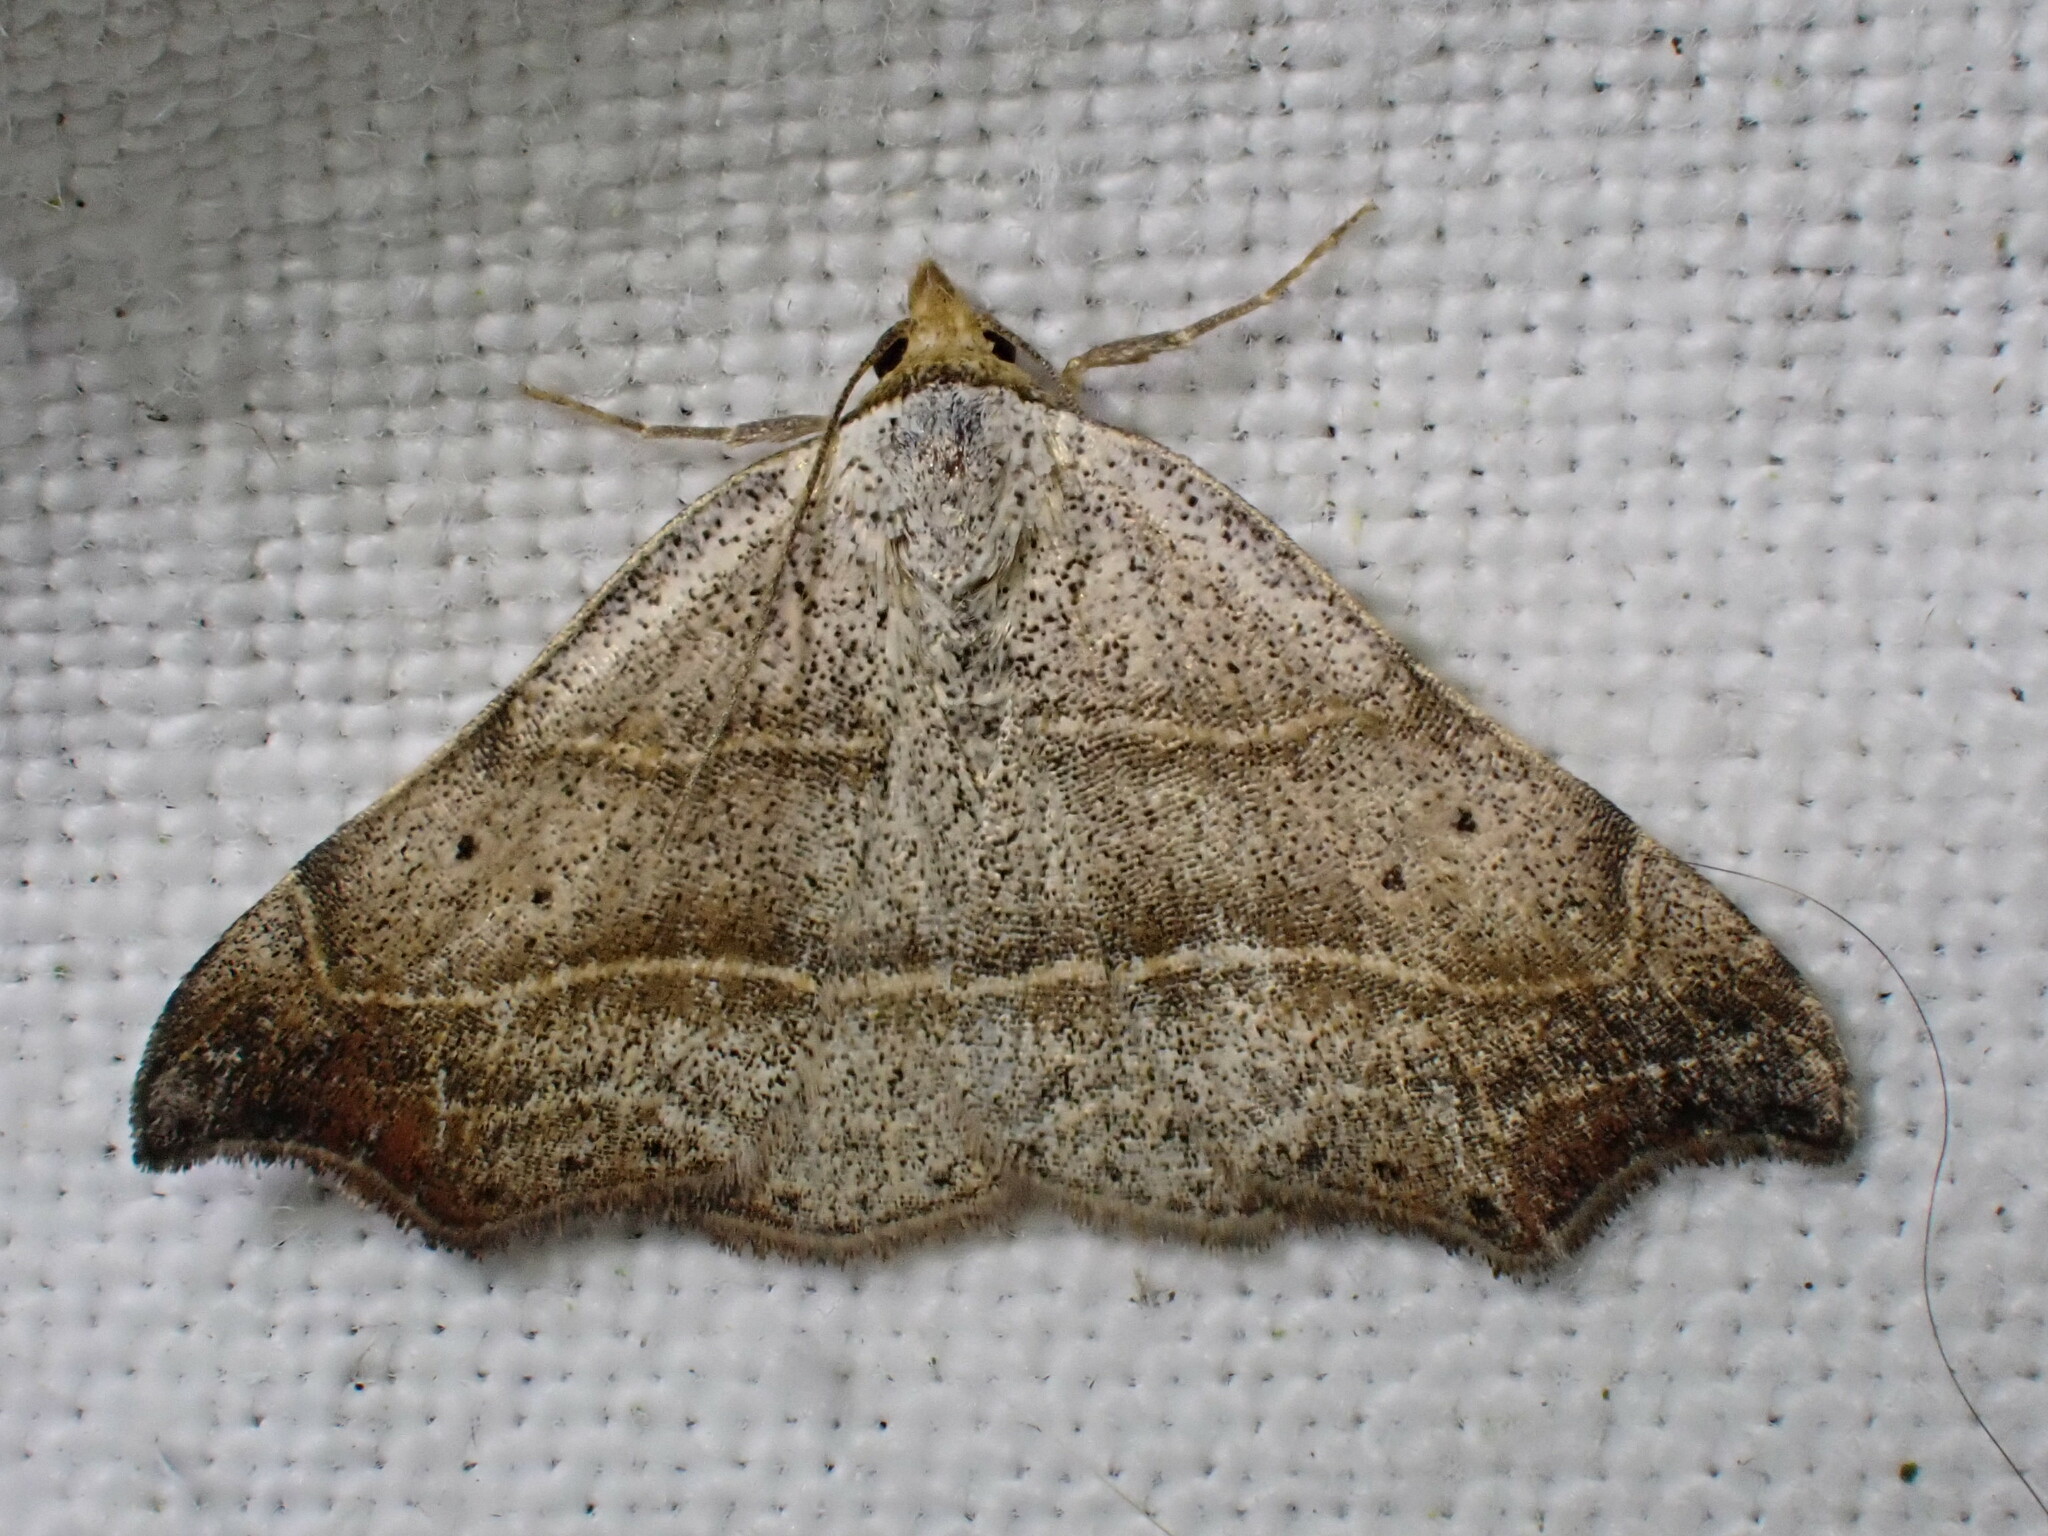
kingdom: Animalia
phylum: Arthropoda
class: Insecta
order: Lepidoptera
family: Erebidae
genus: Laspeyria
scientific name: Laspeyria flexula
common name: Beautiful hook-tip
